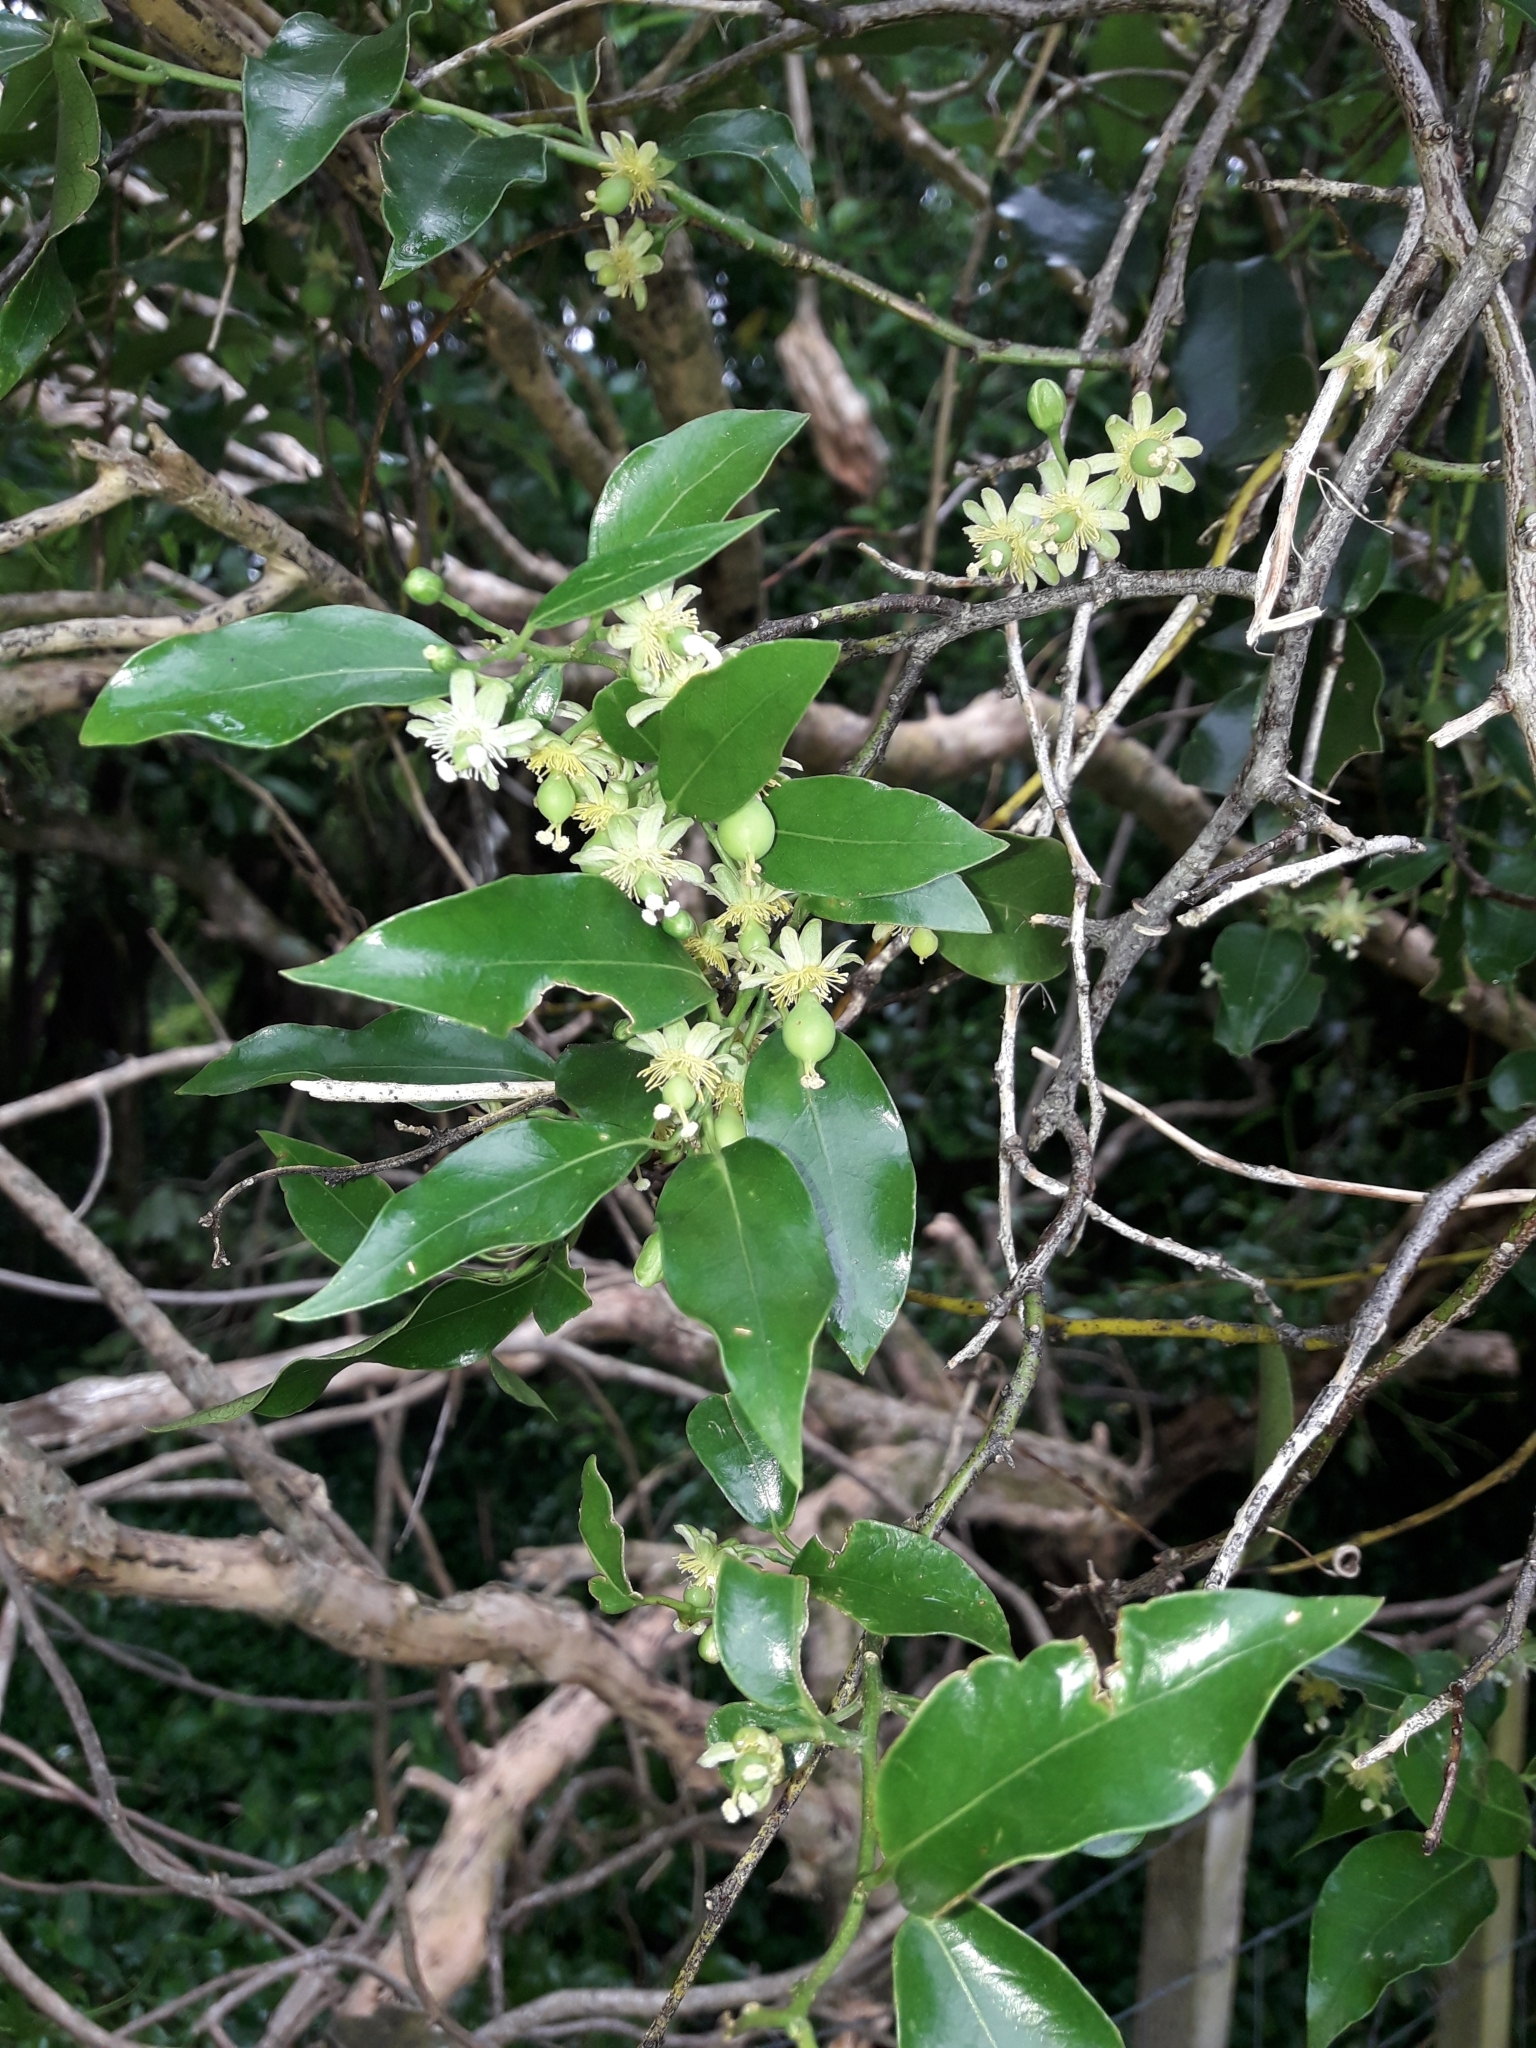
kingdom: Plantae
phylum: Tracheophyta
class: Magnoliopsida
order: Malpighiales
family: Passifloraceae
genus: Passiflora
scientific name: Passiflora tetrandra
